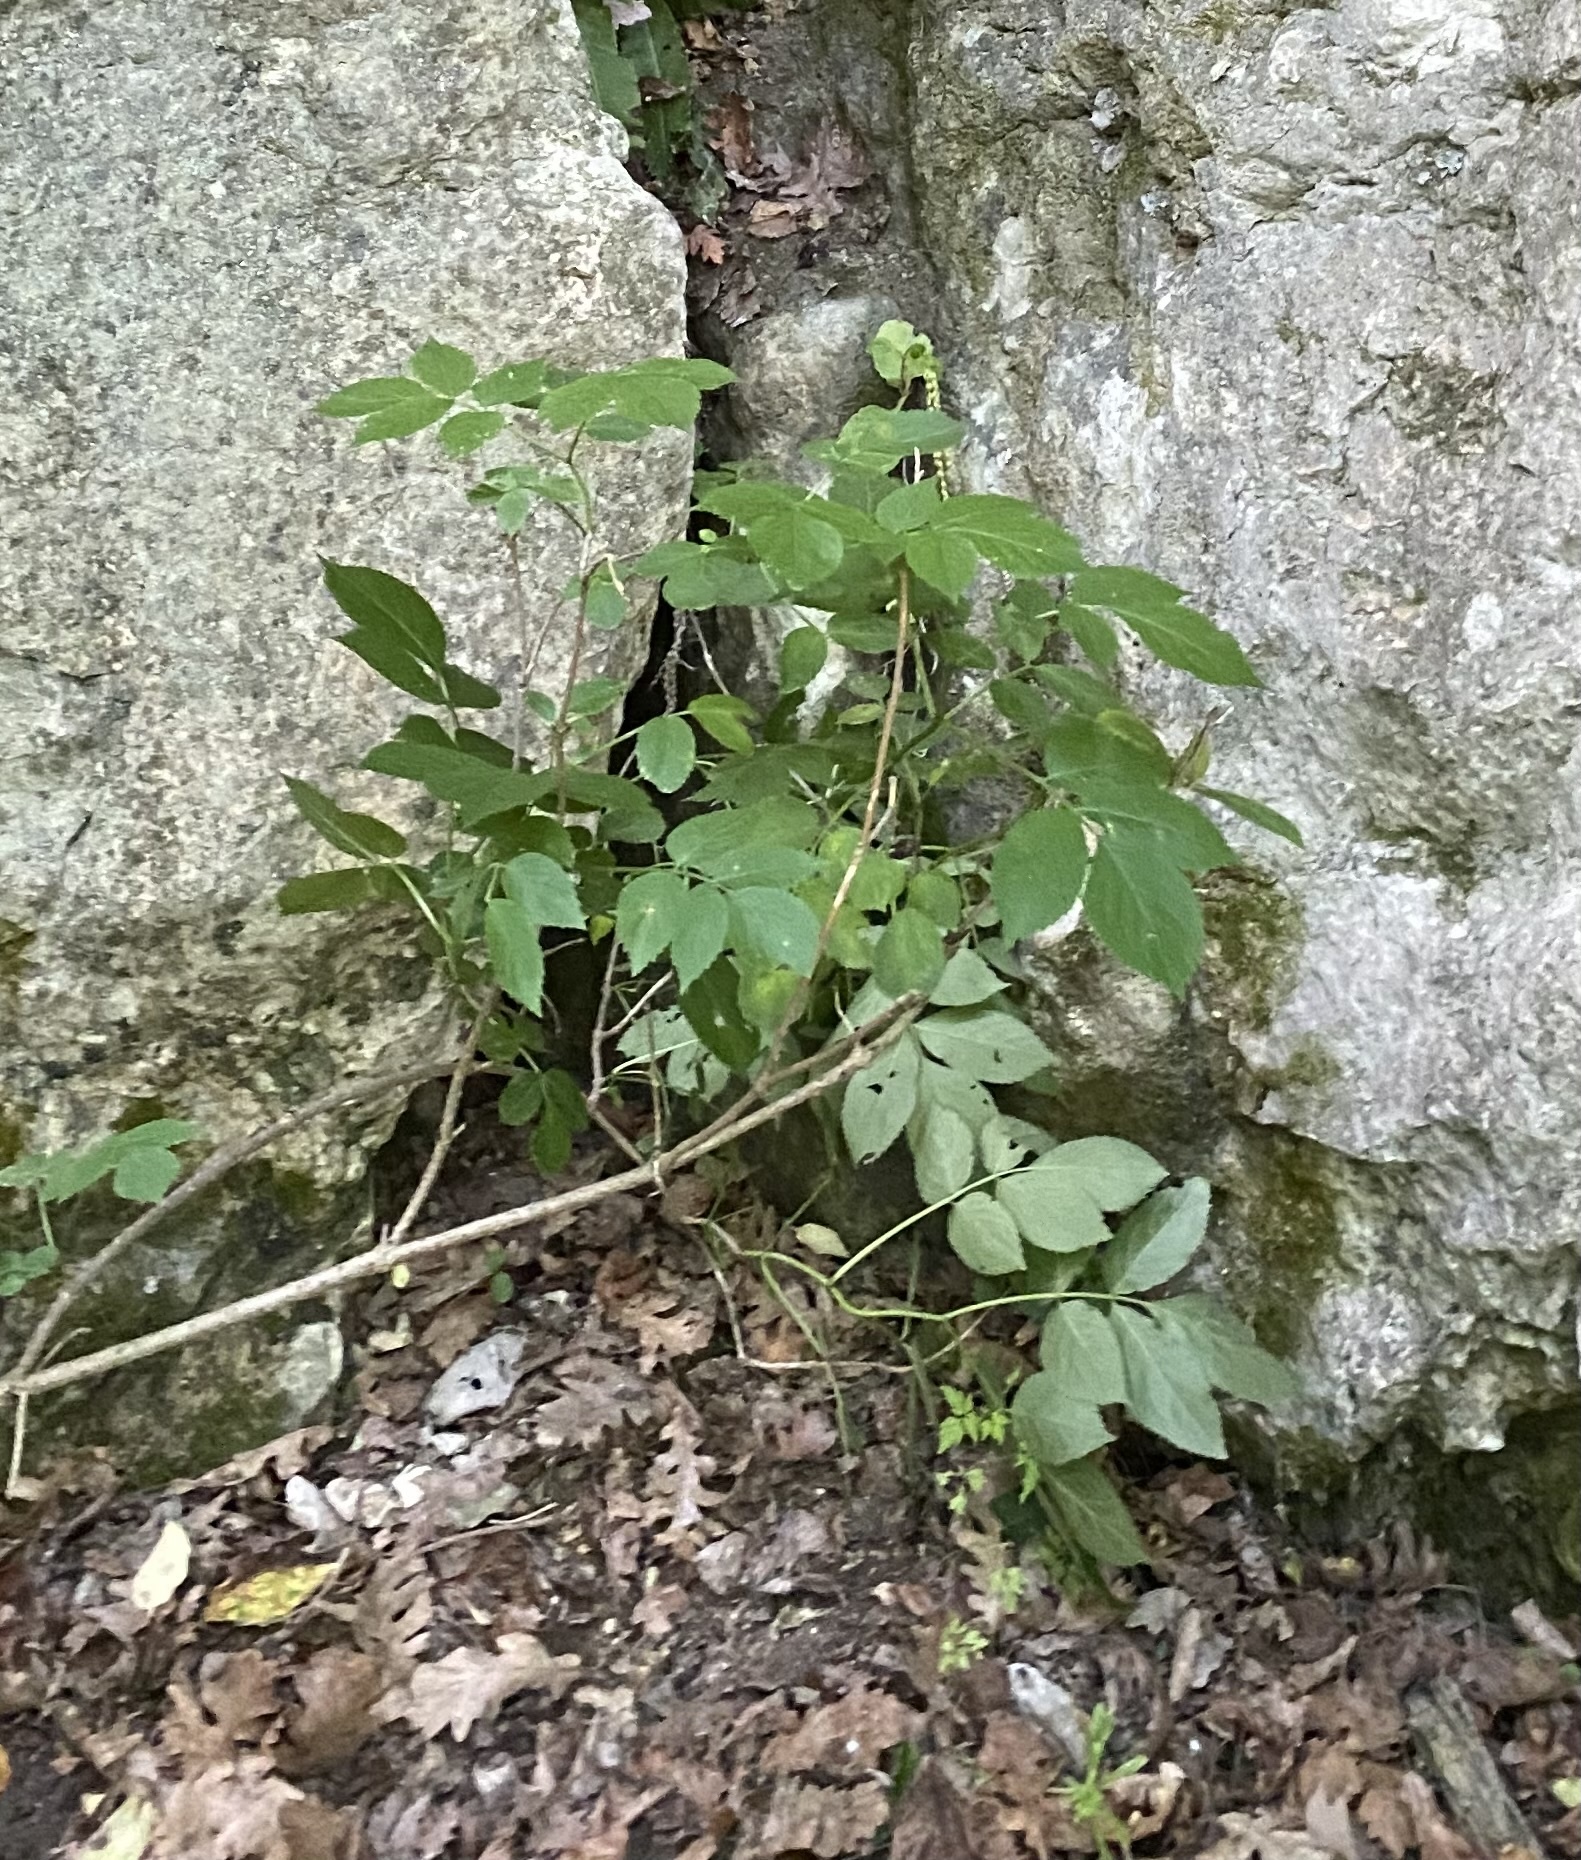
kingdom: Plantae
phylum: Tracheophyta
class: Magnoliopsida
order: Dipsacales
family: Viburnaceae
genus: Sambucus
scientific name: Sambucus nigra
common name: Elder
